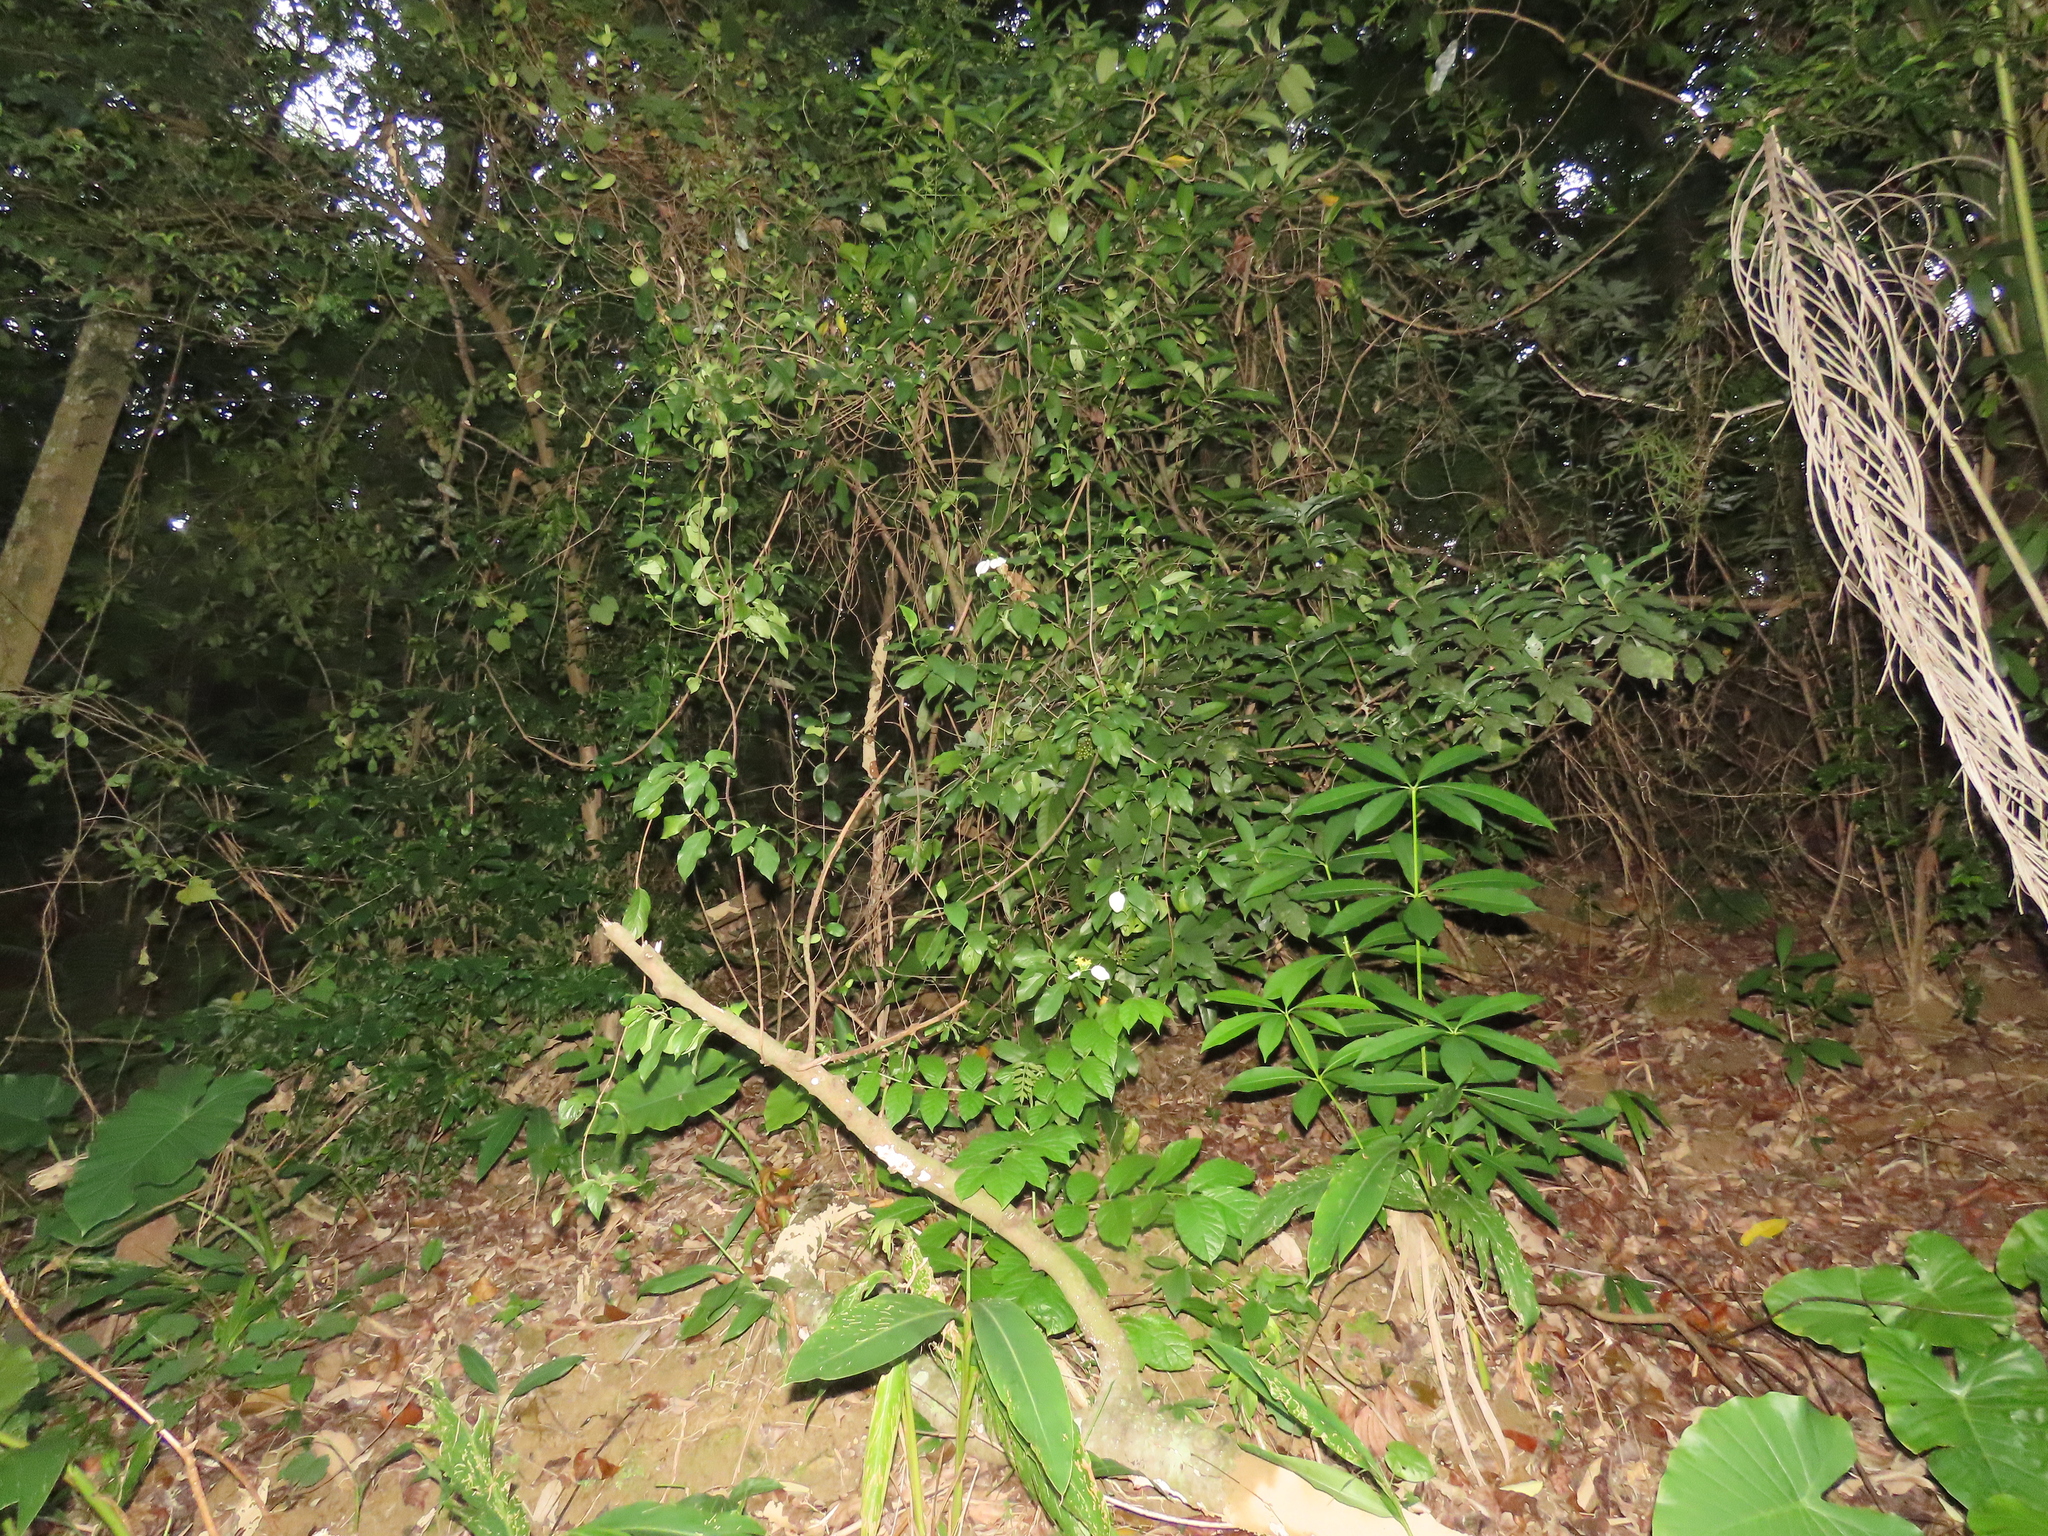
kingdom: Plantae
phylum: Tracheophyta
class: Magnoliopsida
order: Gentianales
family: Apocynaceae
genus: Gymnema
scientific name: Gymnema sylvestre
